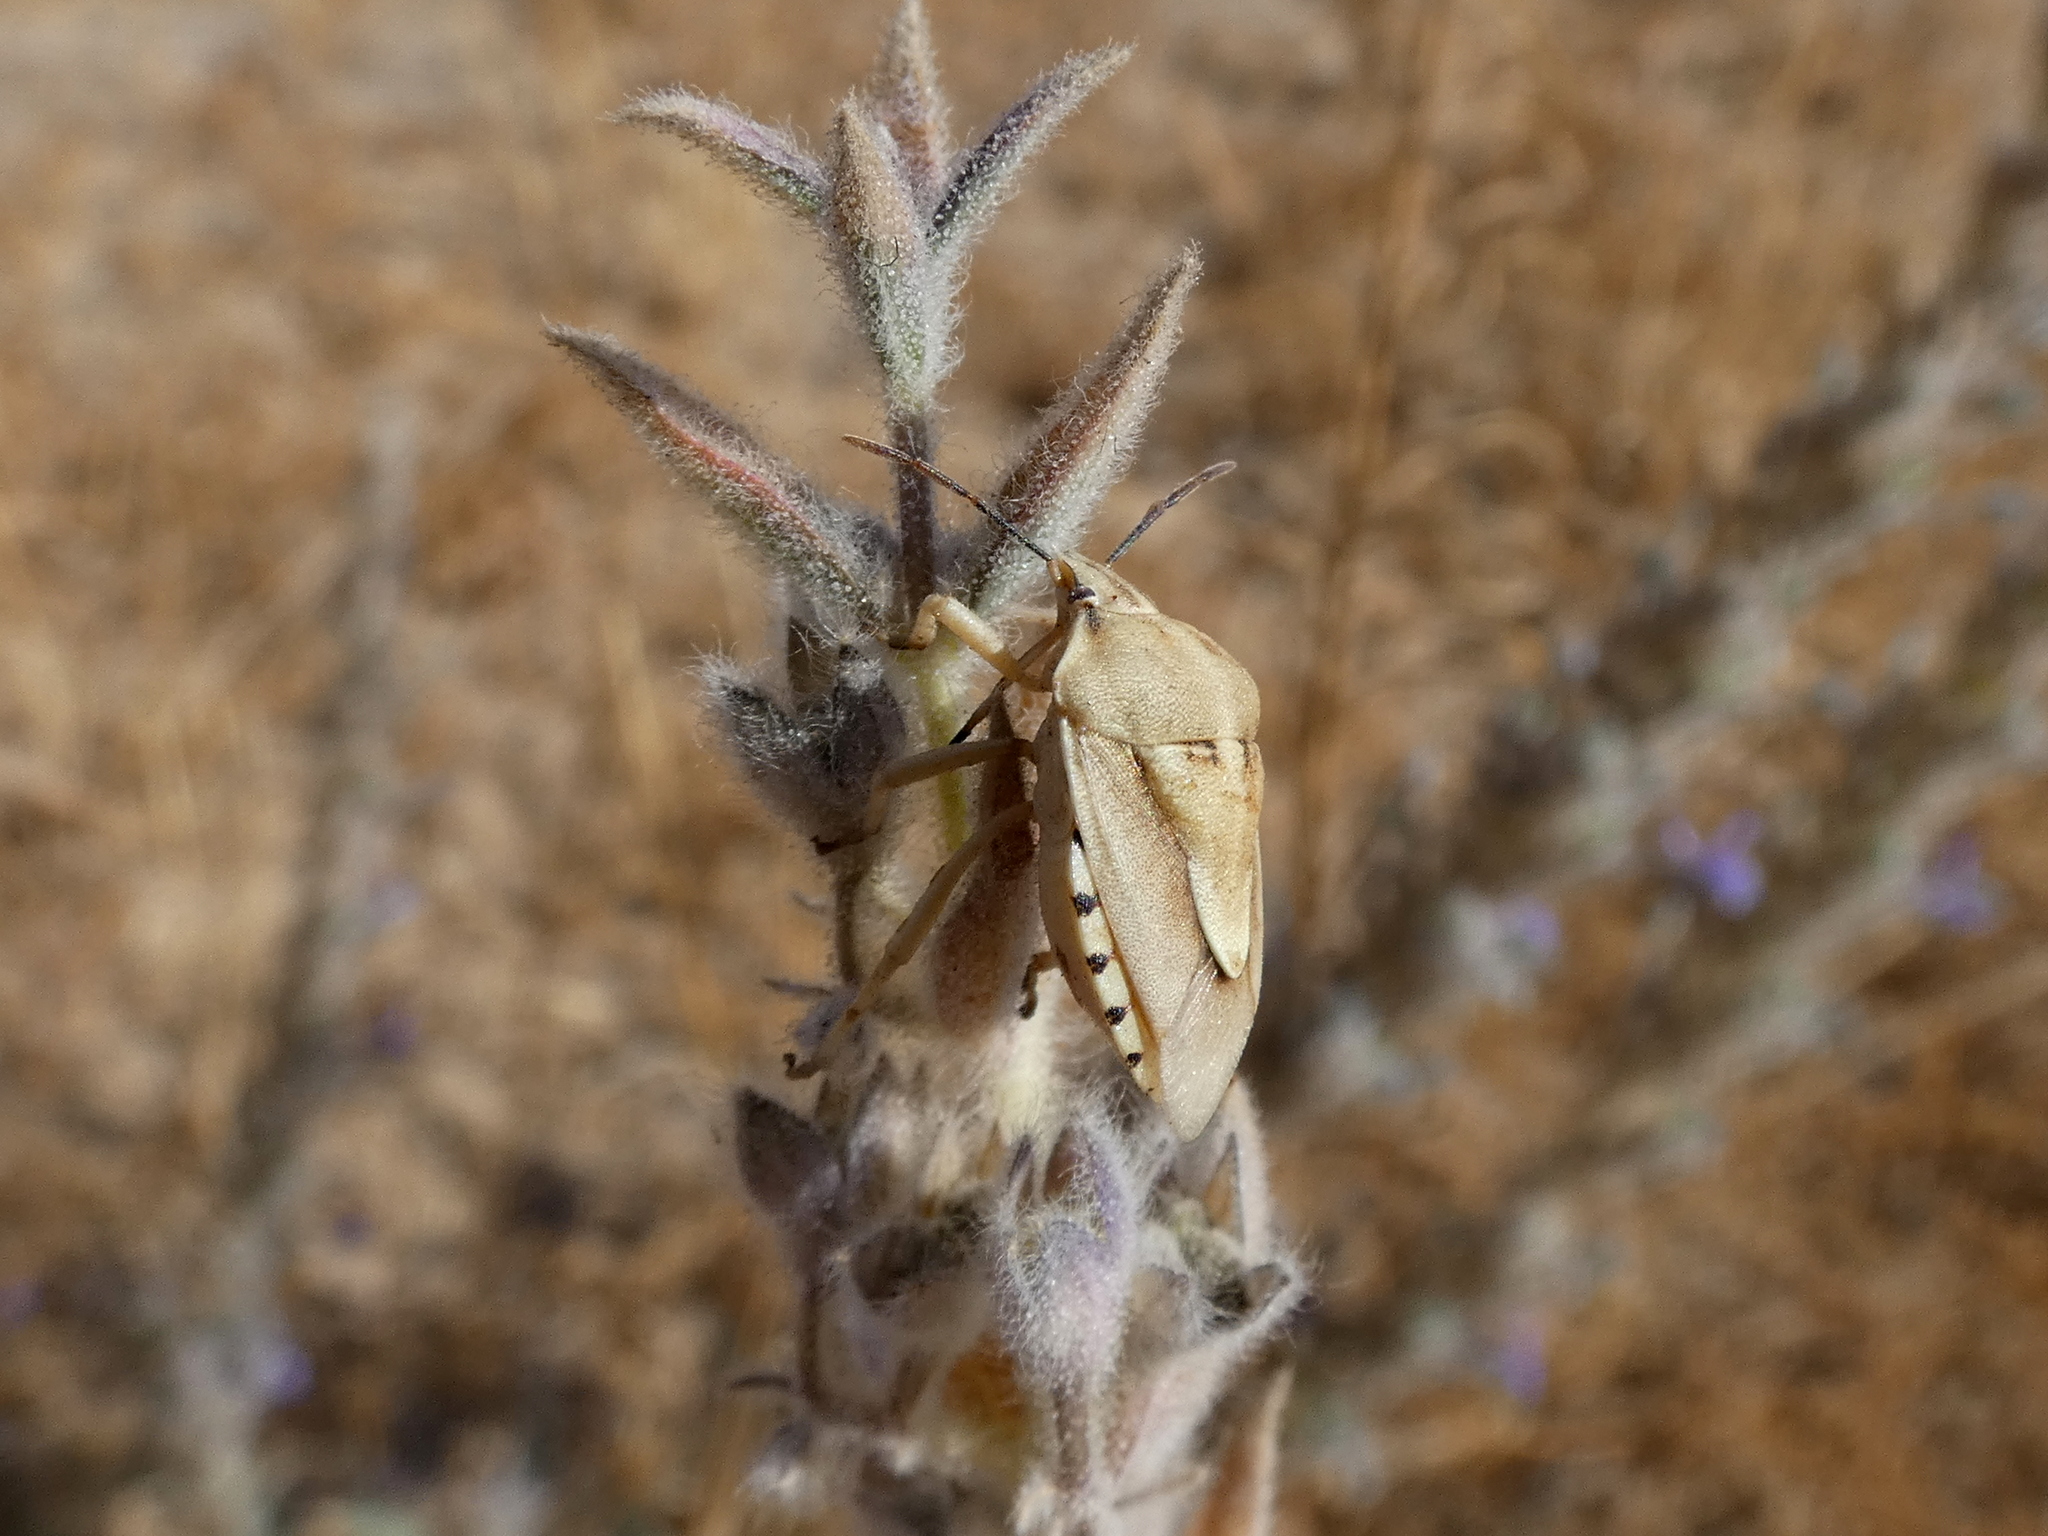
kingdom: Animalia
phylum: Arthropoda
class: Insecta
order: Hemiptera
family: Pentatomidae
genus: Antheminia
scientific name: Antheminia
